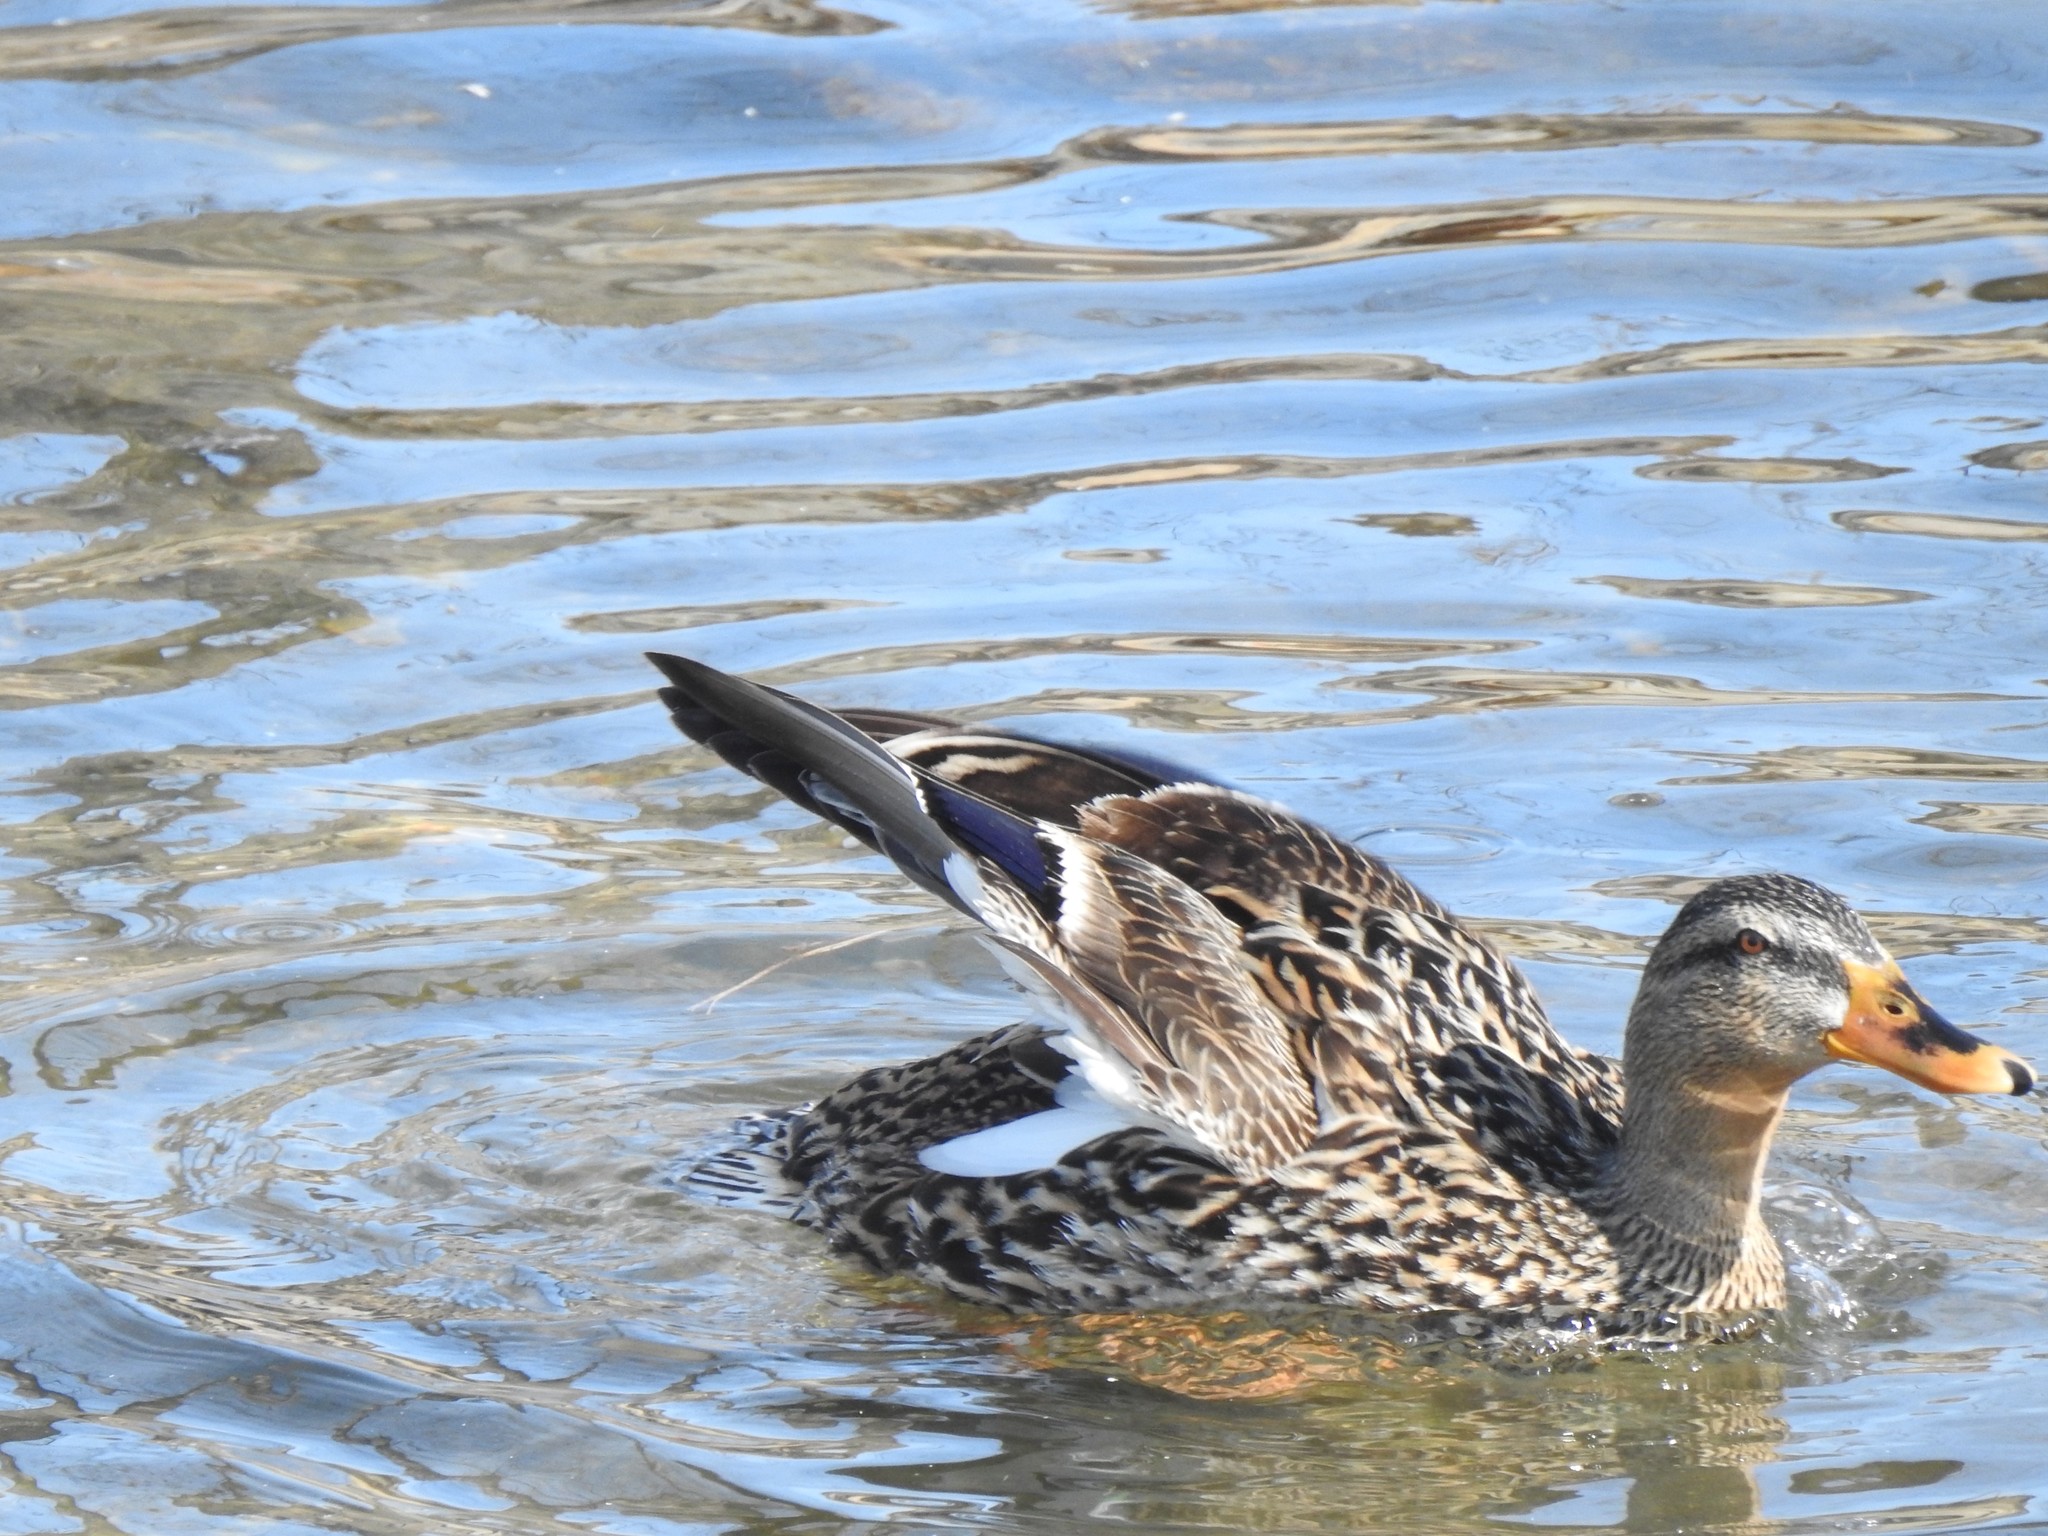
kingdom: Animalia
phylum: Chordata
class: Aves
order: Anseriformes
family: Anatidae
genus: Anas
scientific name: Anas platyrhynchos
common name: Mallard
